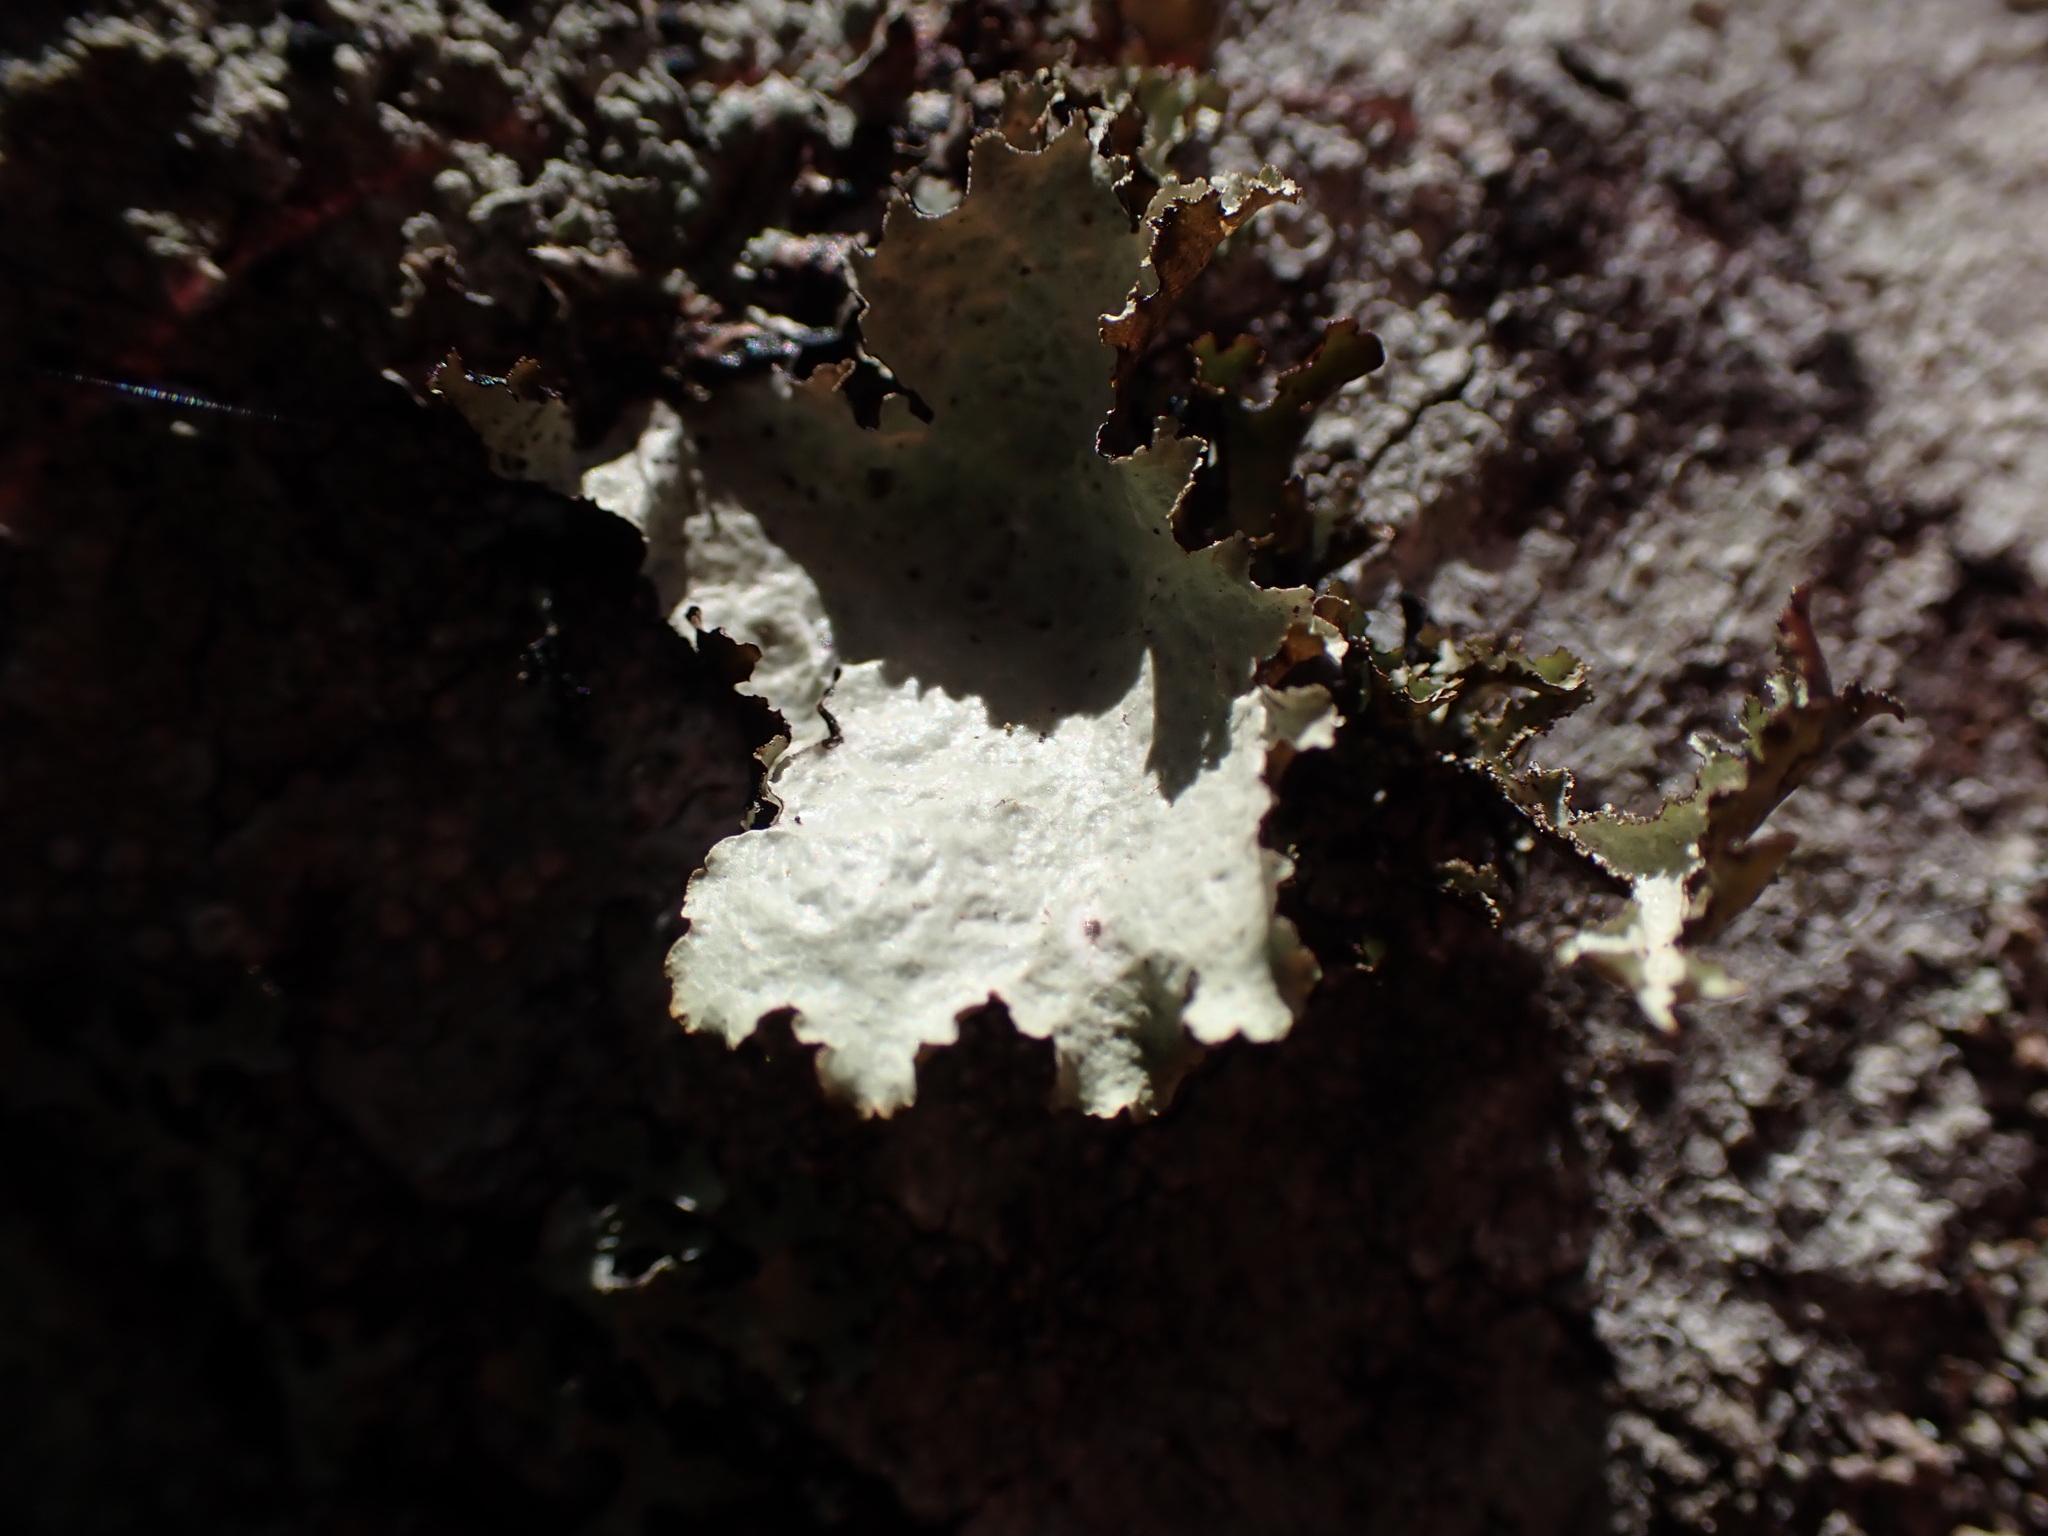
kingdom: Fungi
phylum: Ascomycota
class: Lecanoromycetes
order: Lecanorales
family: Parmeliaceae
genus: Platismatia
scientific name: Platismatia glauca
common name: Varied rag lichen
